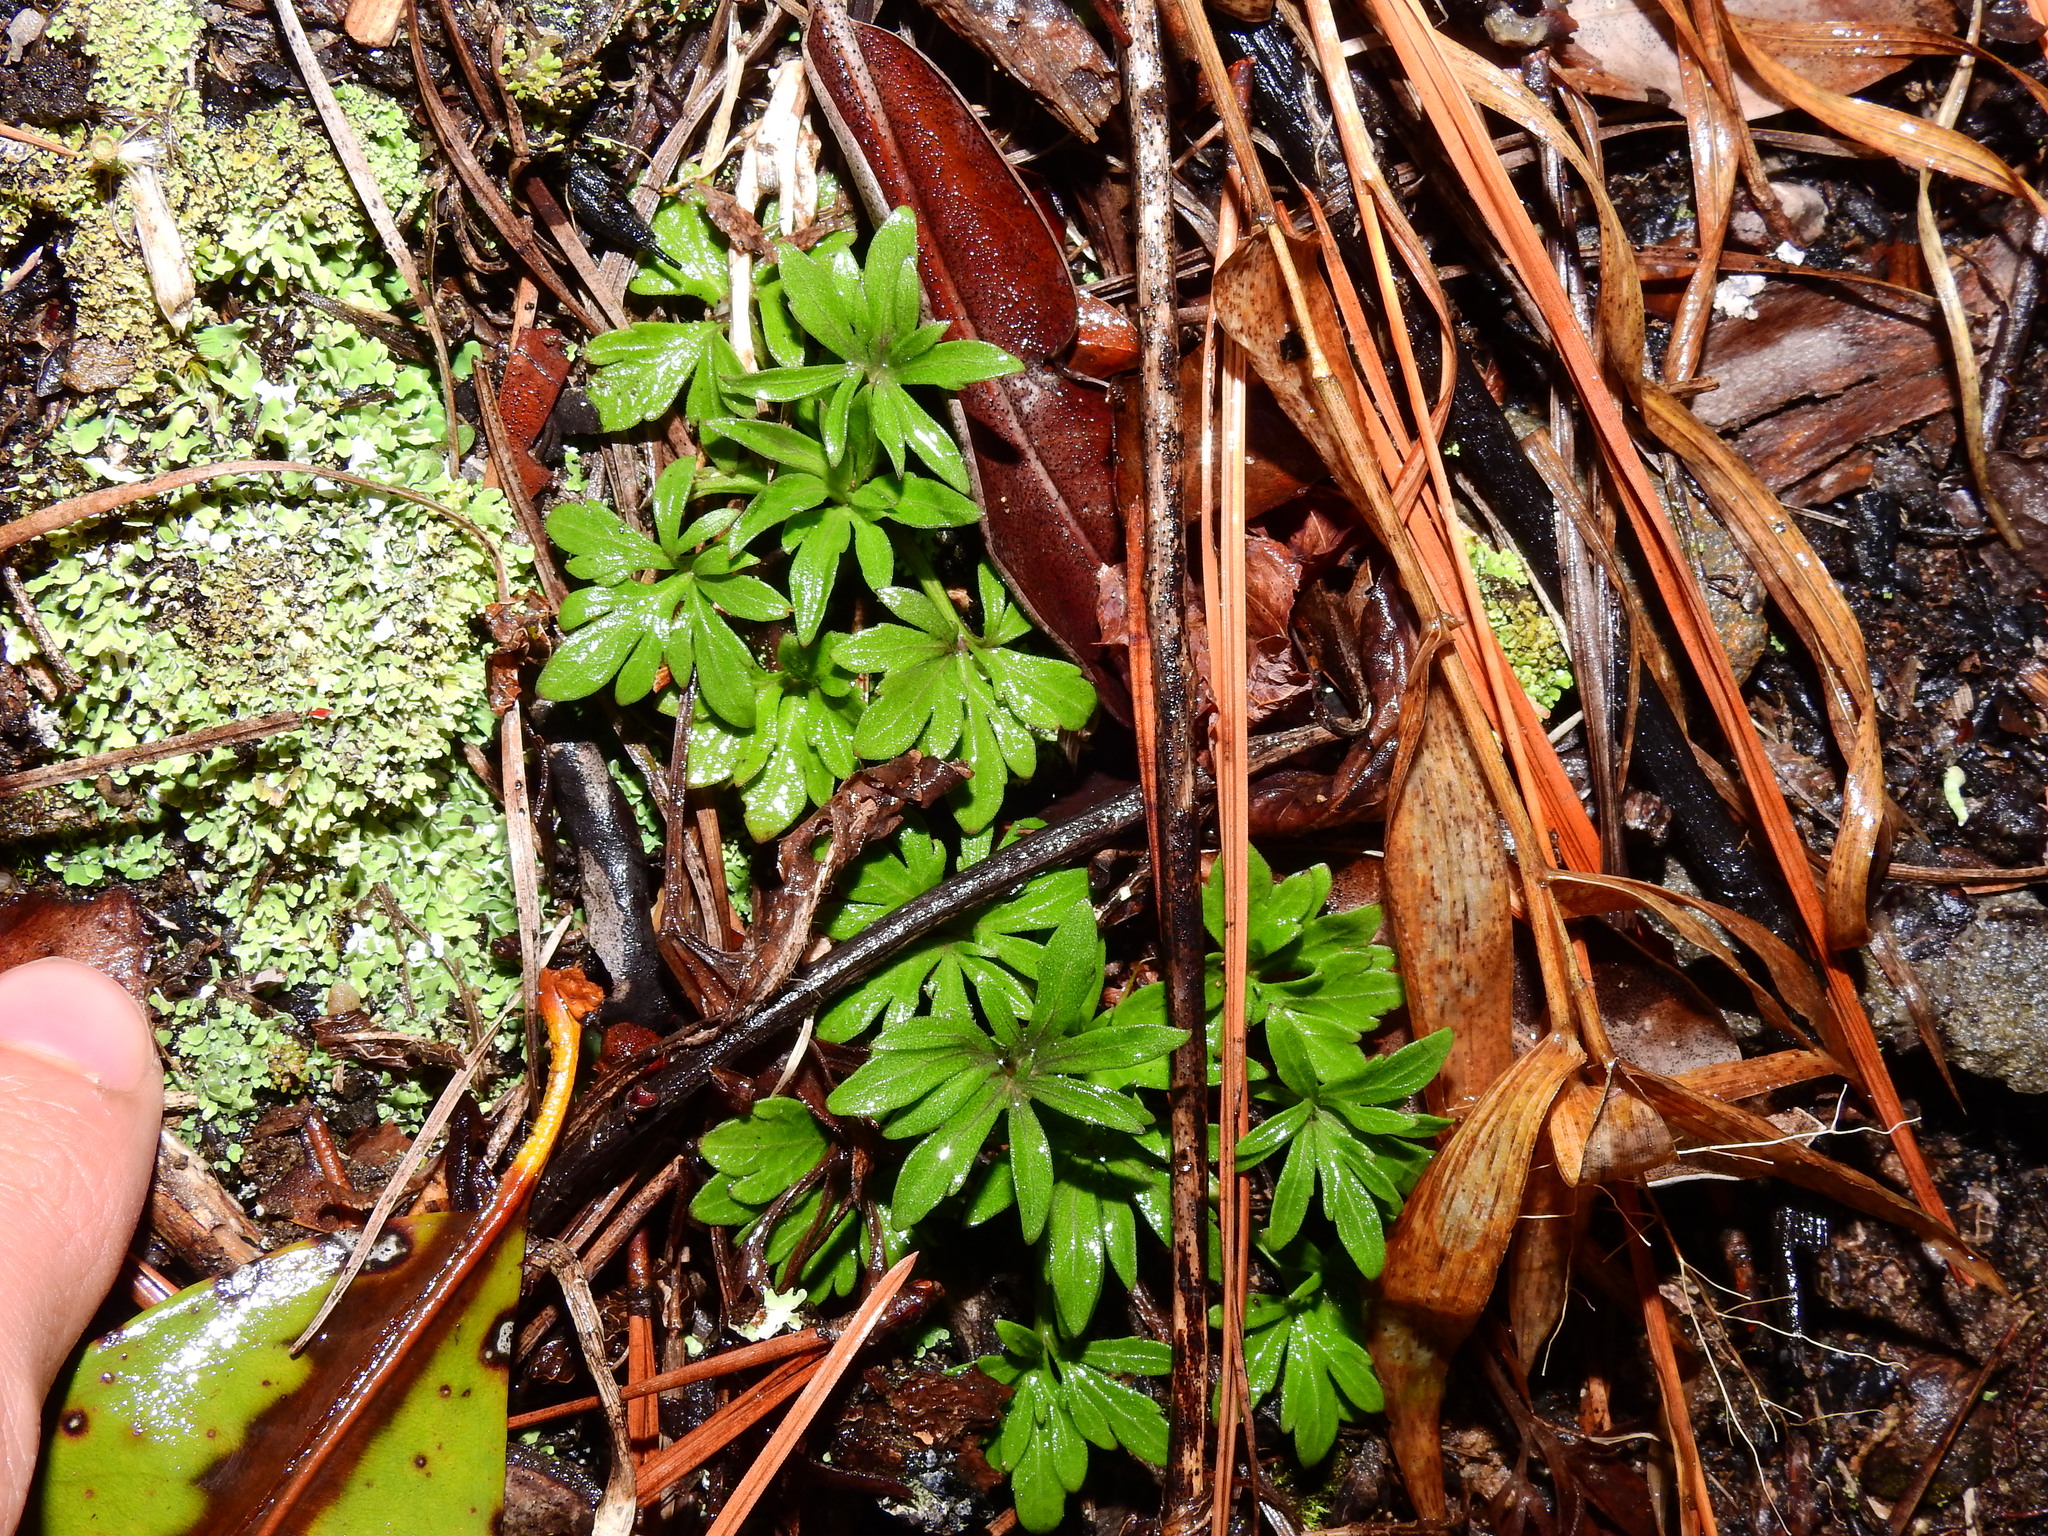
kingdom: Plantae
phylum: Tracheophyta
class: Magnoliopsida
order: Malpighiales
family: Violaceae
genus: Viola
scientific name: Viola pedata
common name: Pansy violet
